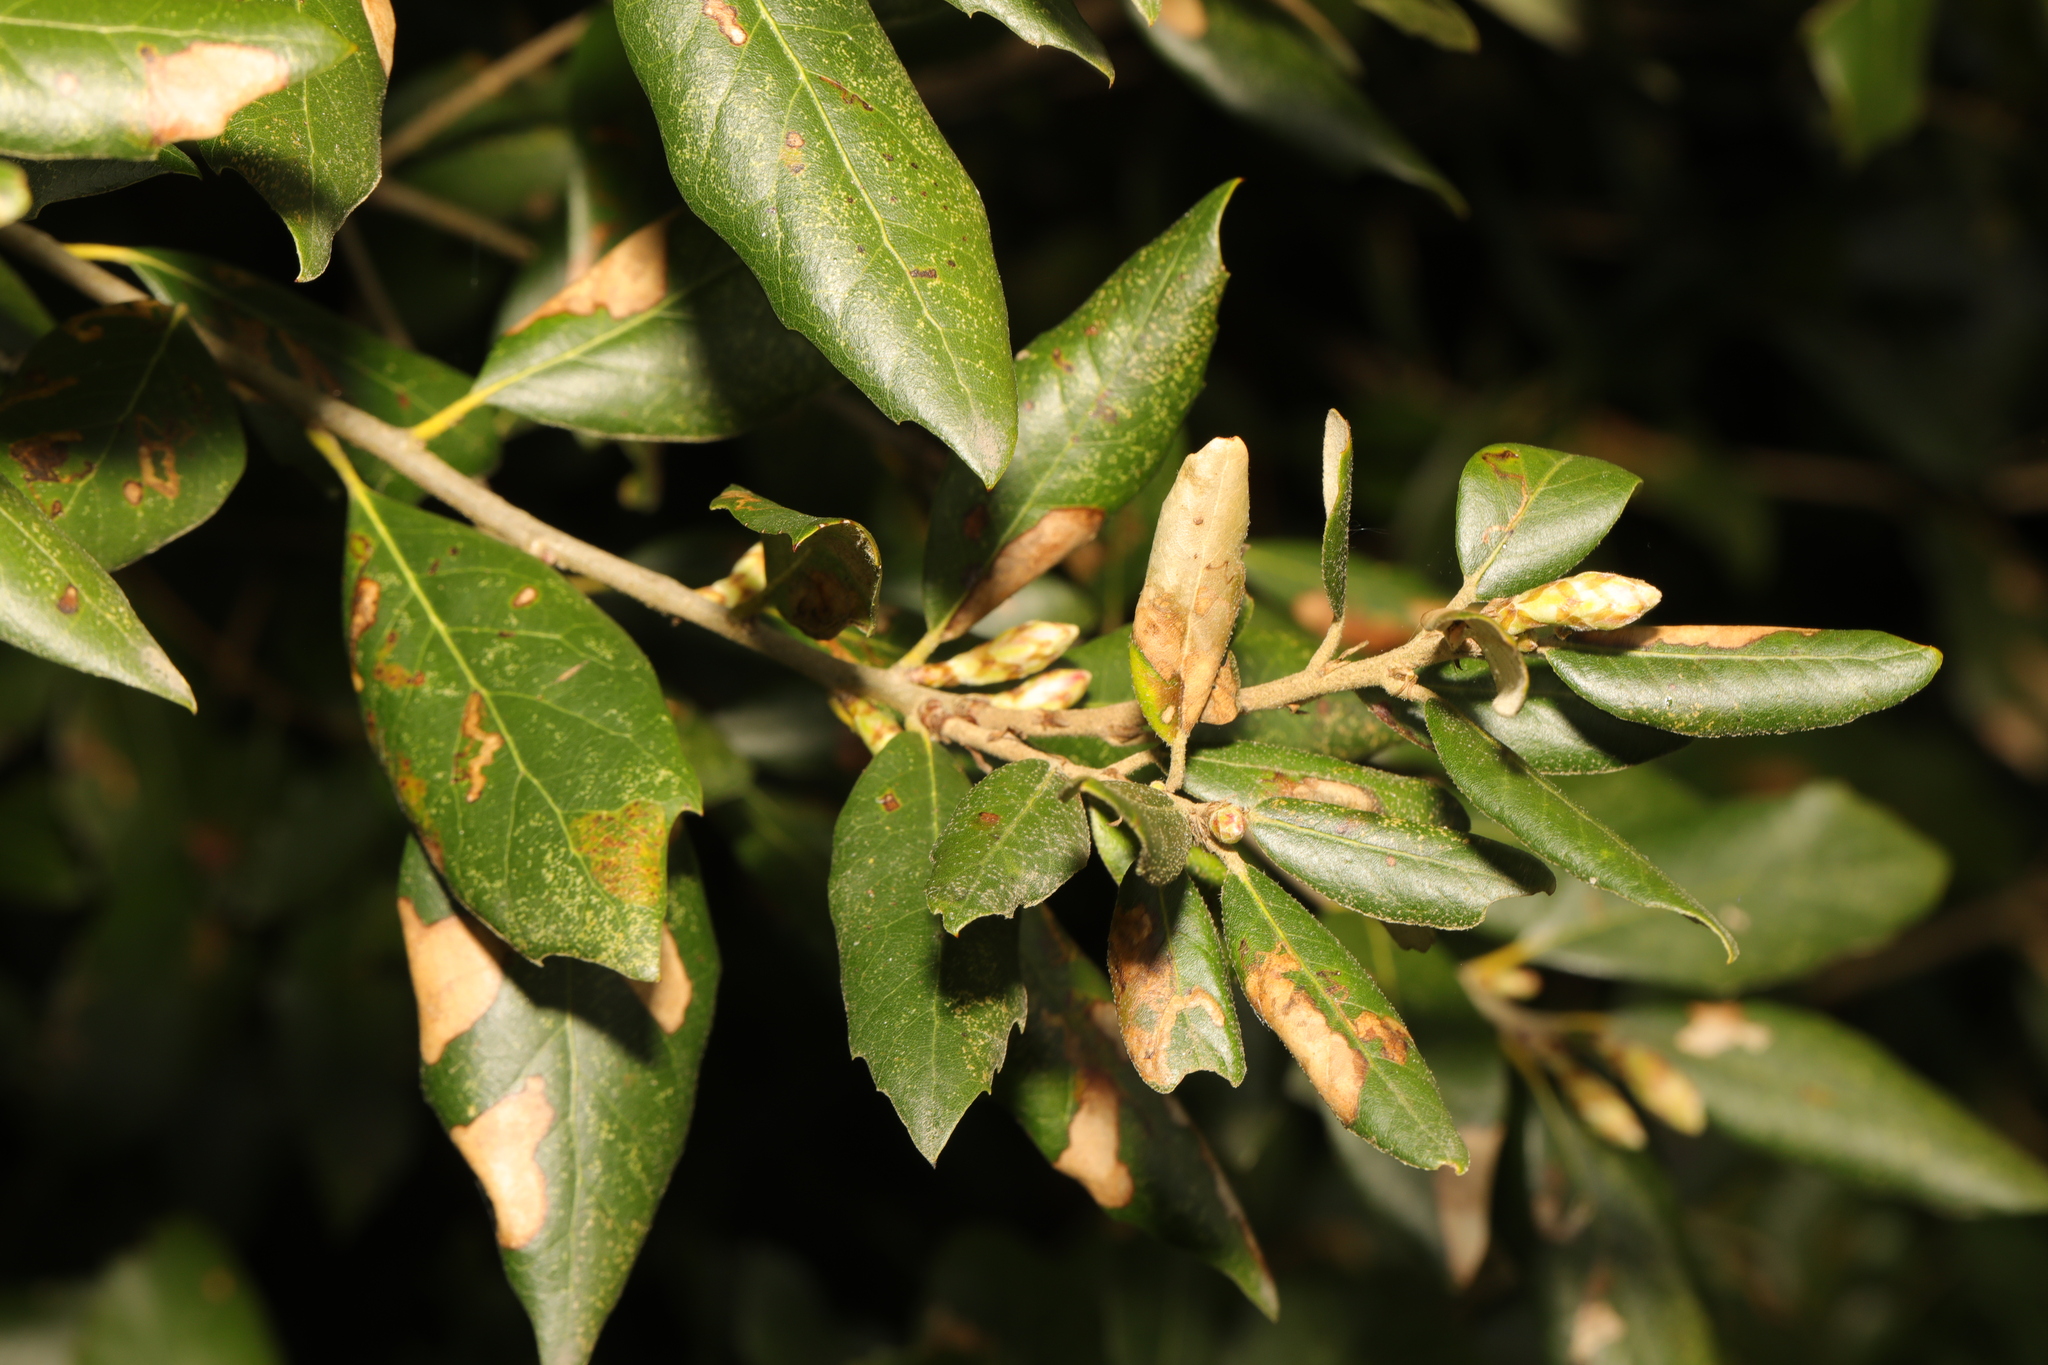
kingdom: Plantae
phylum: Tracheophyta
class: Magnoliopsida
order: Fagales
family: Fagaceae
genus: Quercus
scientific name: Quercus ilex
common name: Evergreen oak
